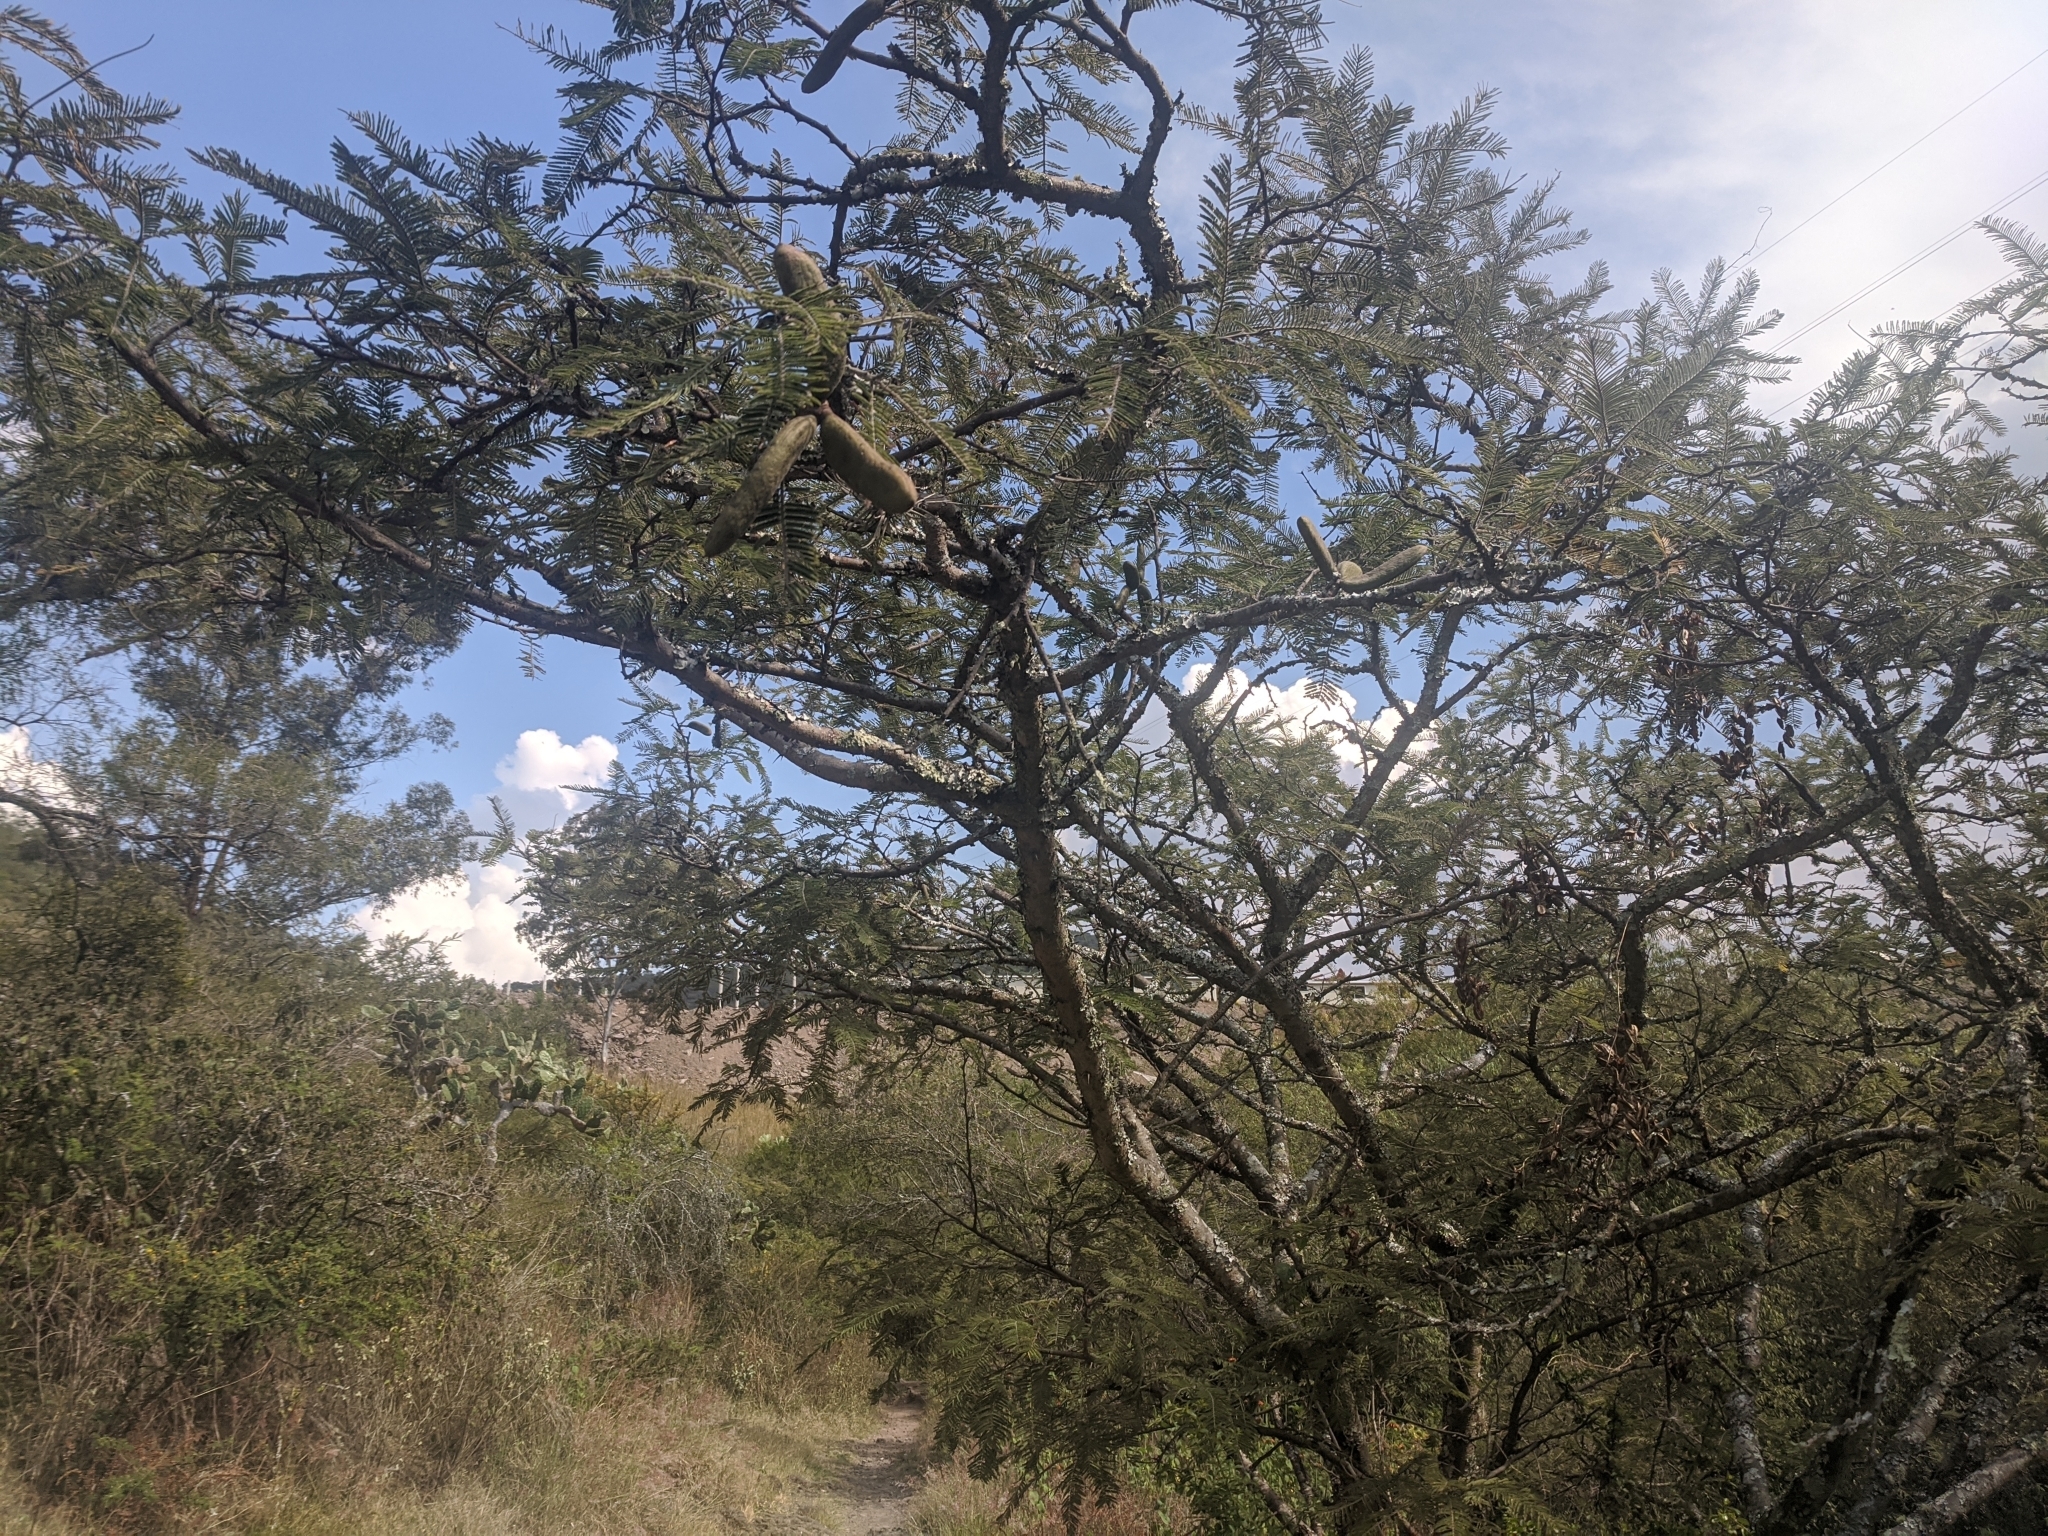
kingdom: Plantae
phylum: Tracheophyta
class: Magnoliopsida
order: Fabales
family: Fabaceae
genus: Vachellia
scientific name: Vachellia pennatula
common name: Fern-leaf acacia
